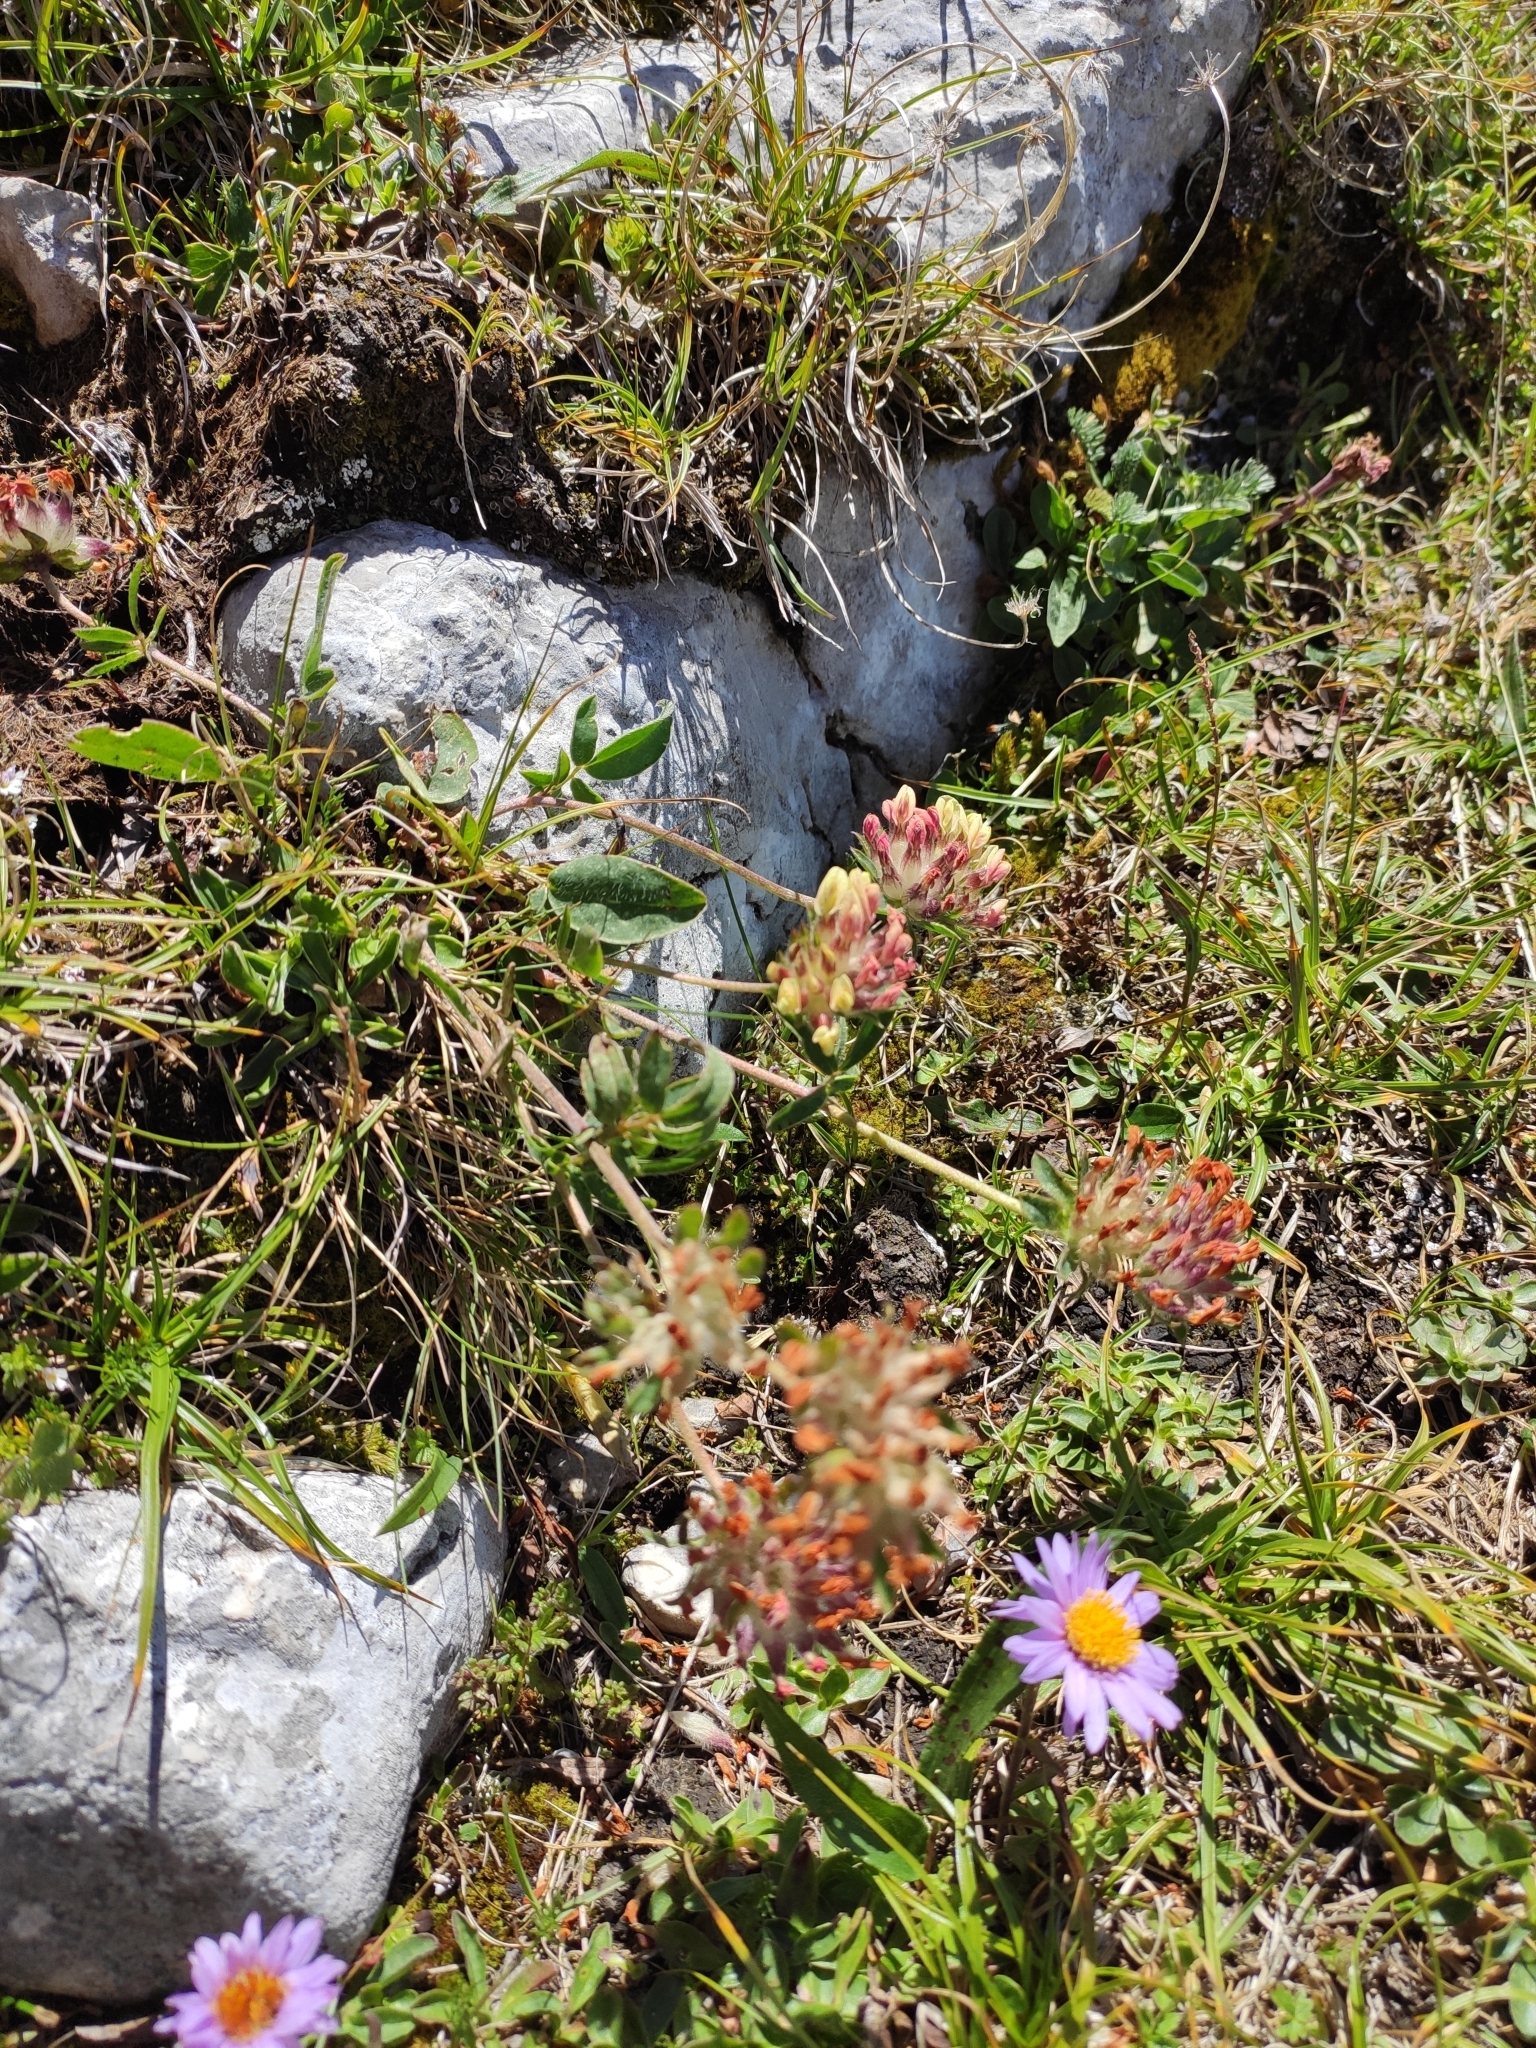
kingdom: Plantae
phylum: Tracheophyta
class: Magnoliopsida
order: Fabales
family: Fabaceae
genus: Anthyllis
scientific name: Anthyllis vulneraria
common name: Kidney vetch
